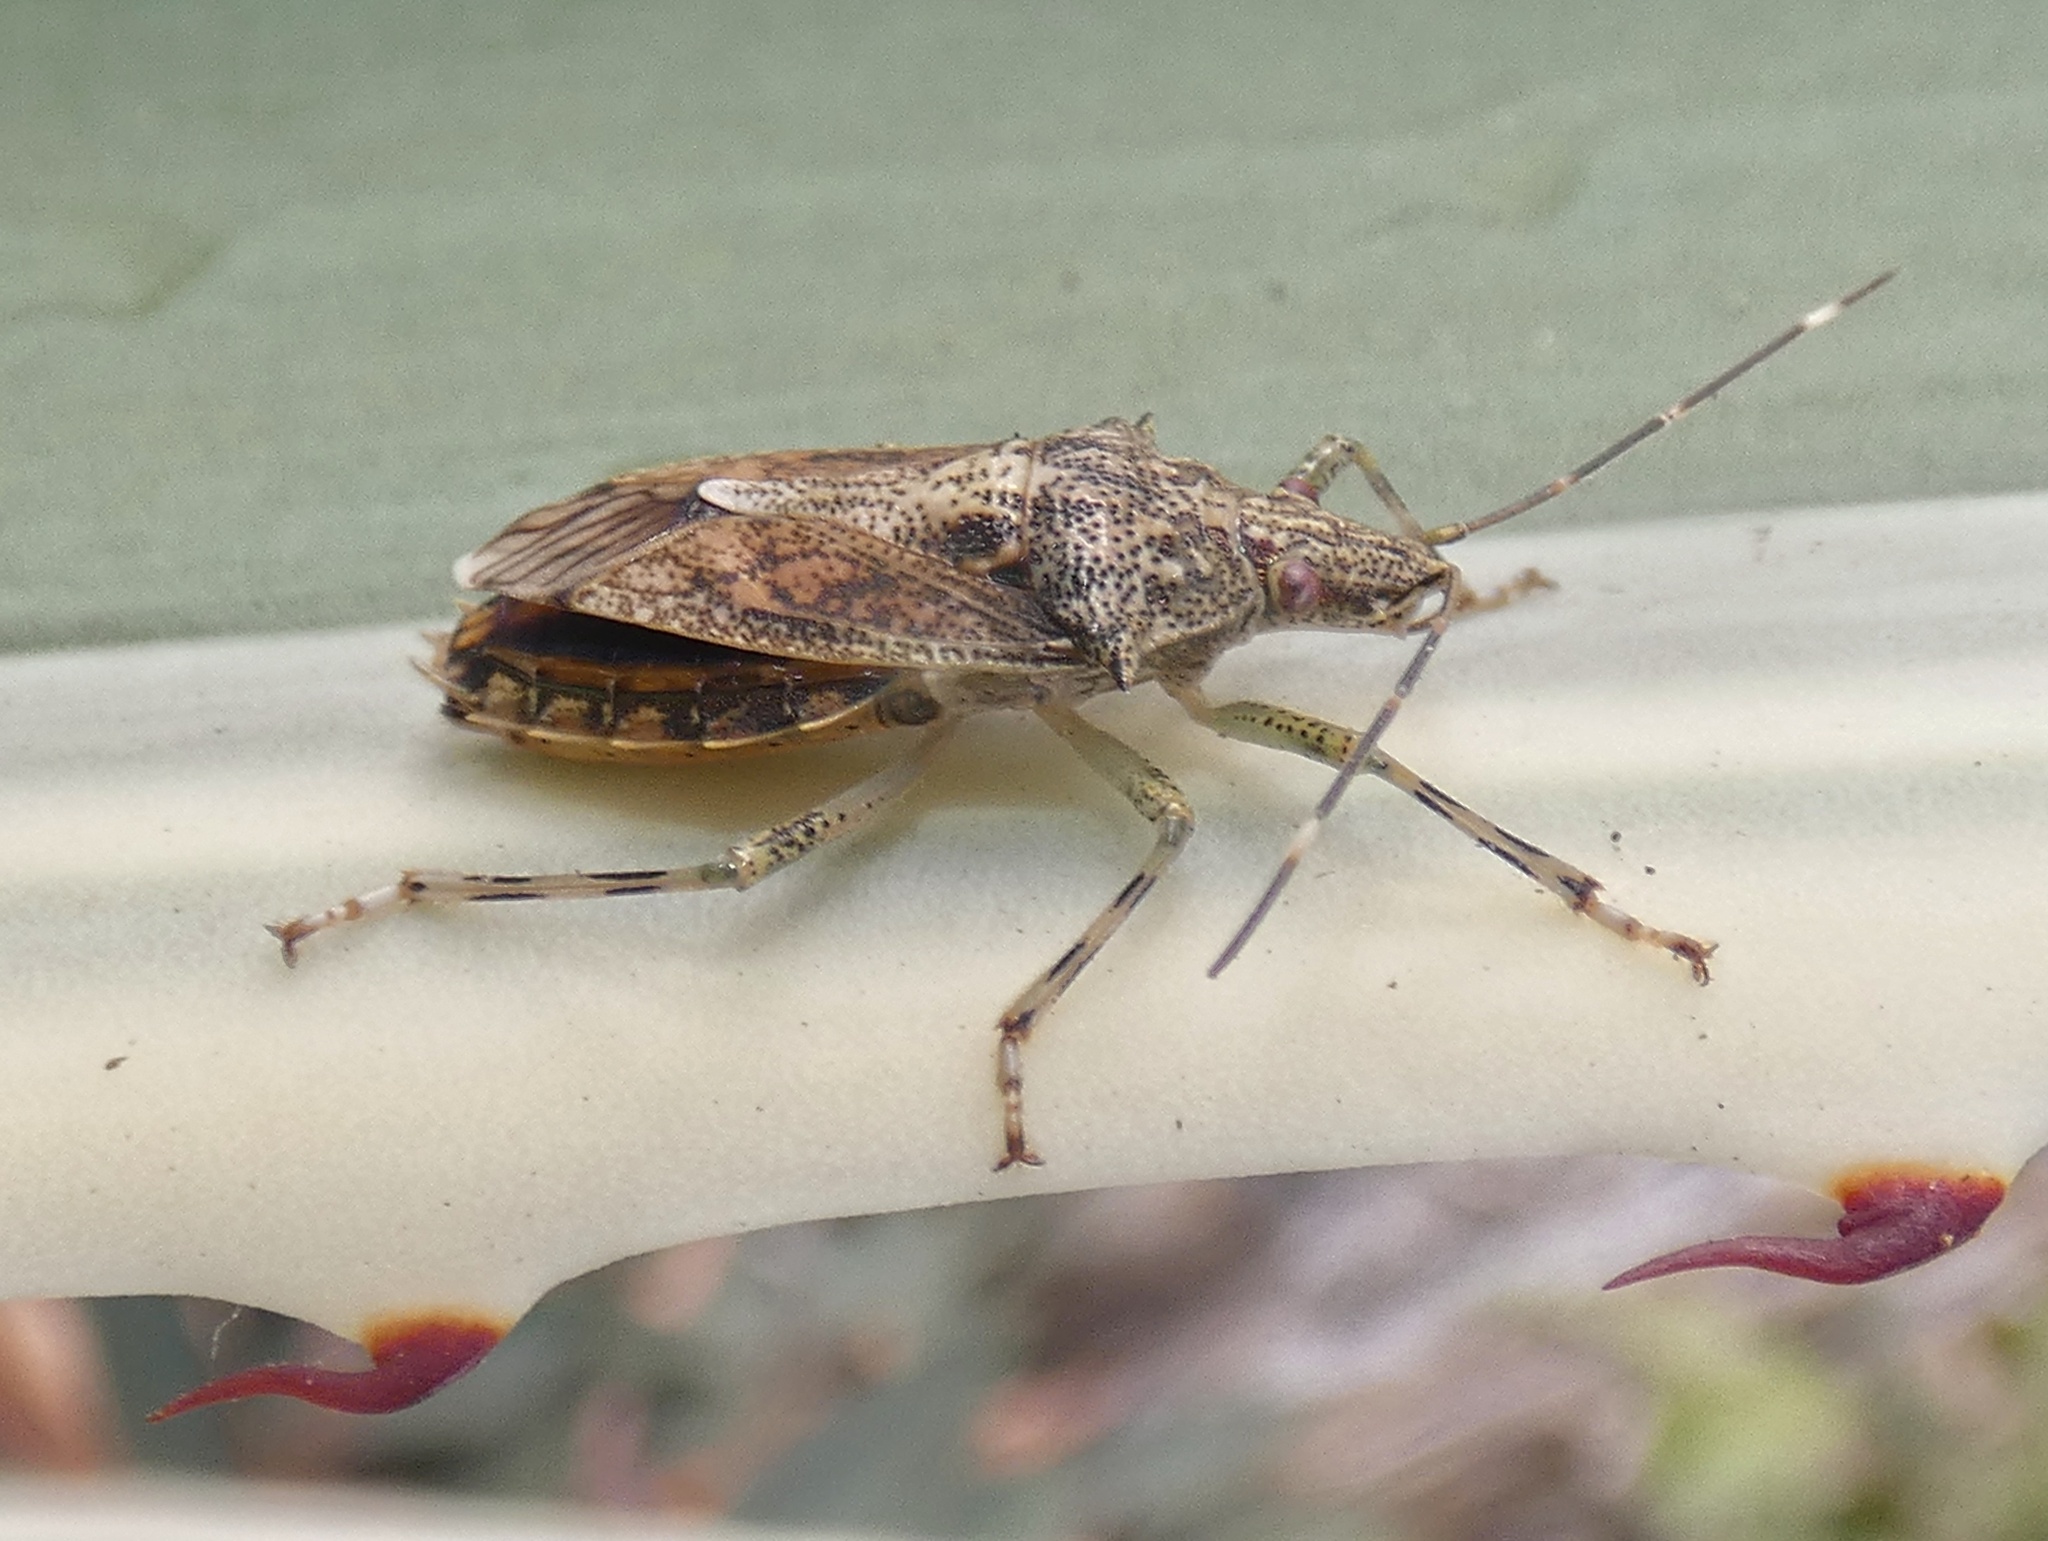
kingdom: Animalia
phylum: Arthropoda
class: Insecta
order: Hemiptera
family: Pentatomidae
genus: Bromocoris
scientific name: Bromocoris
